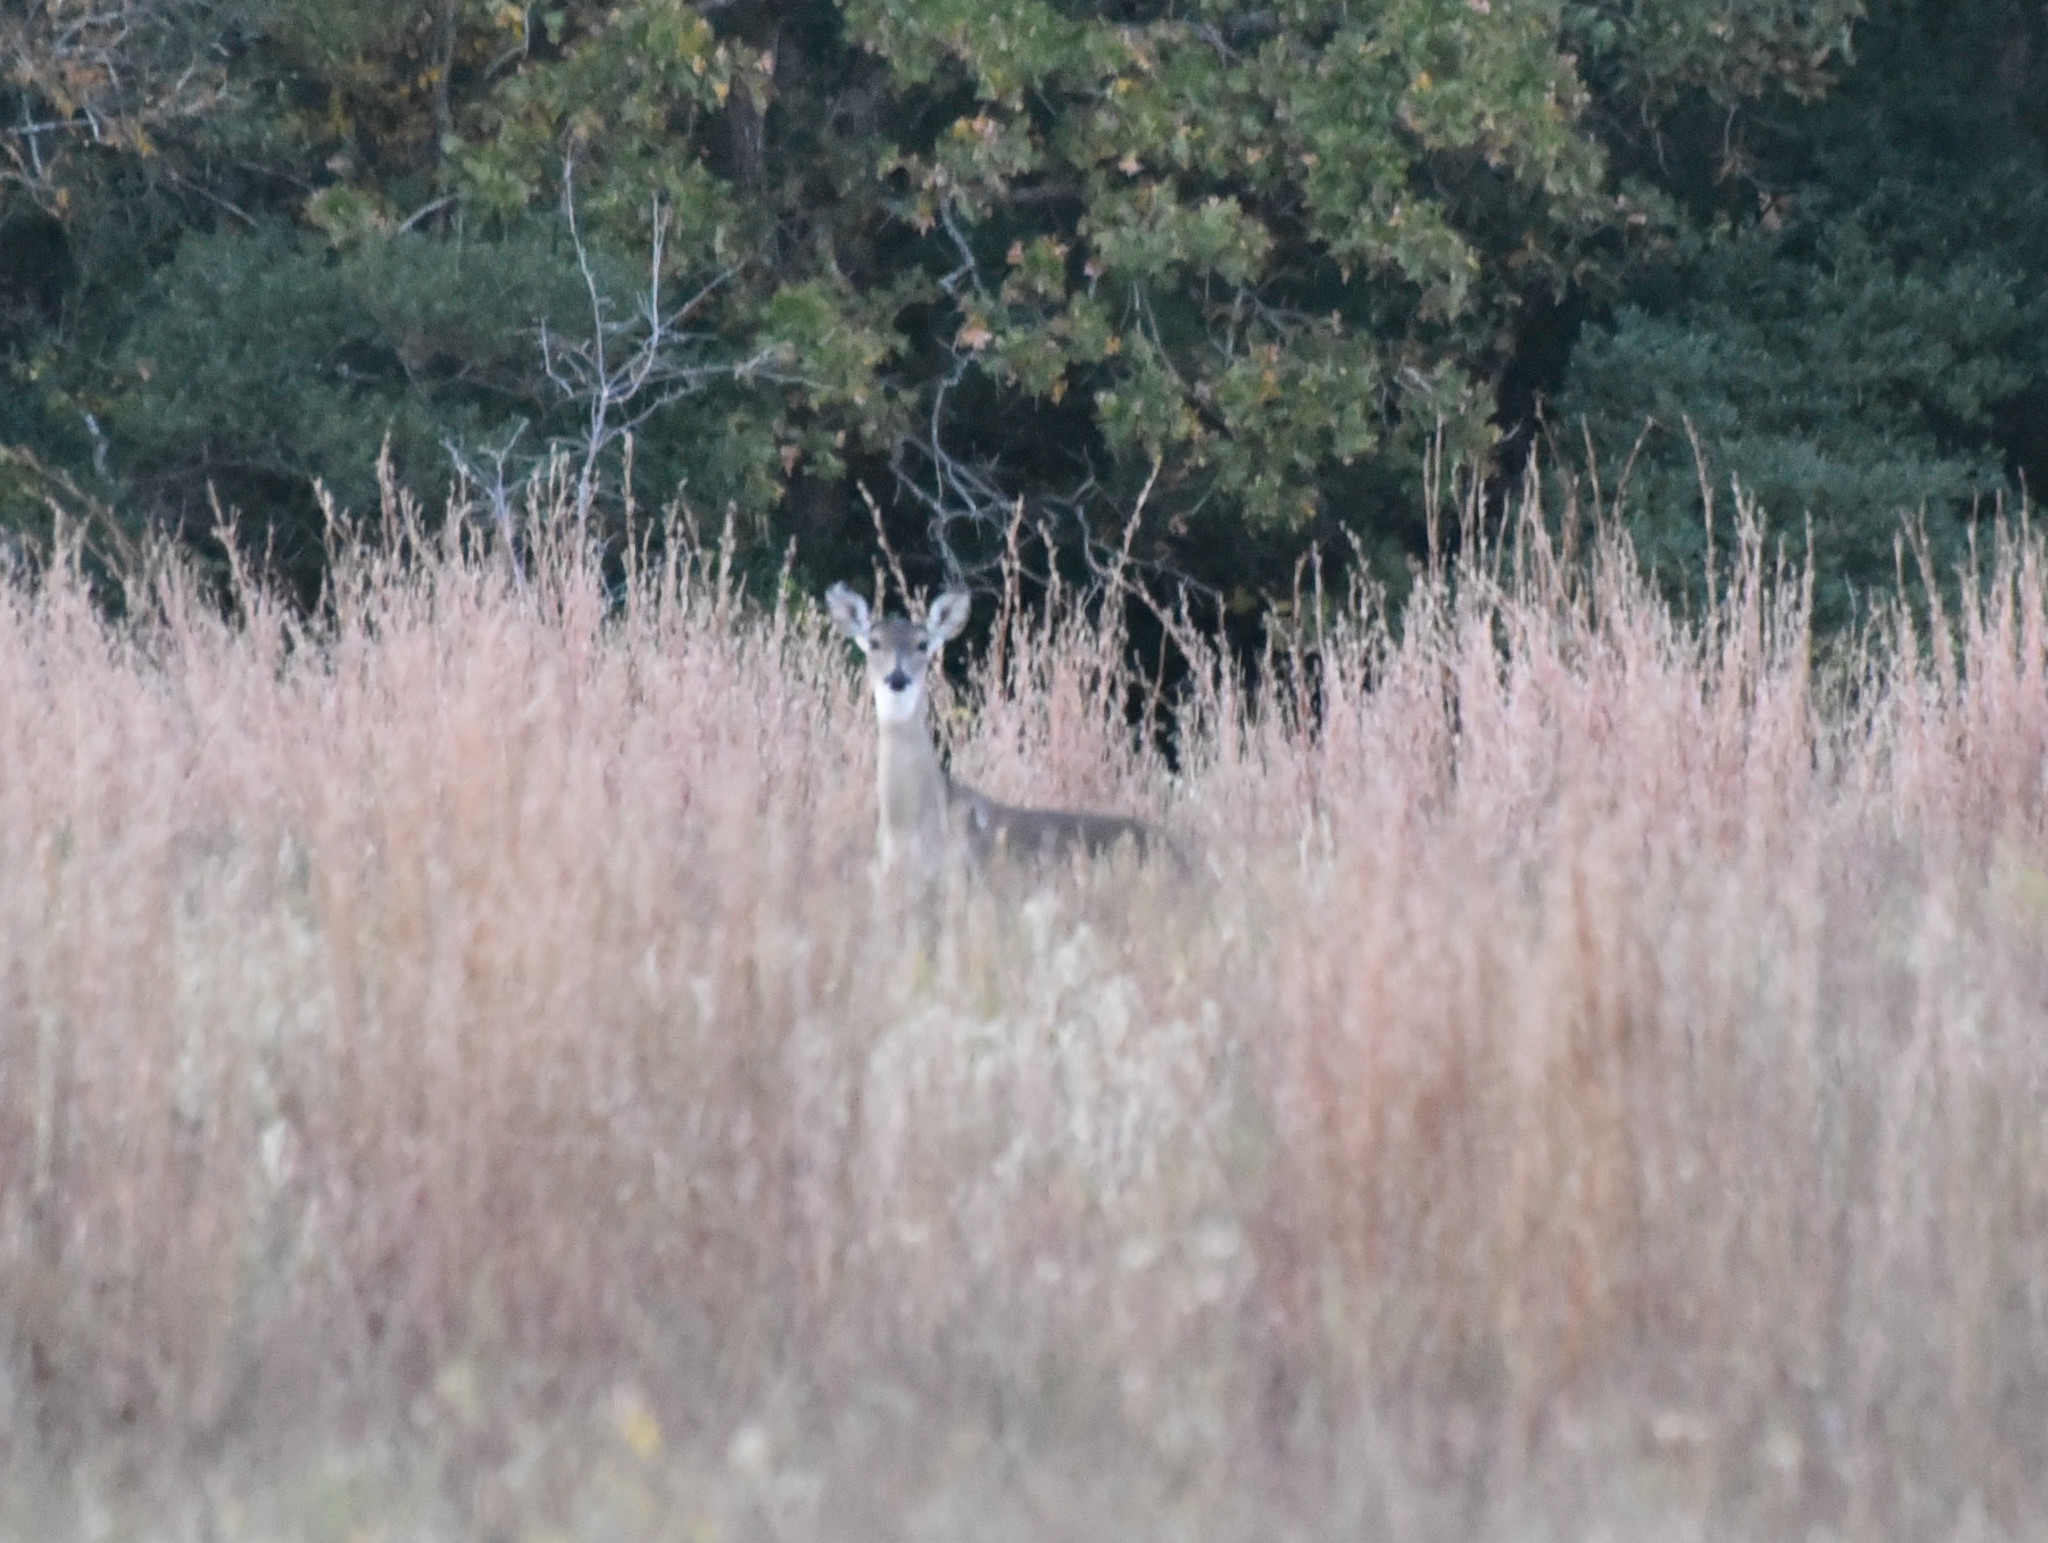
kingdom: Animalia
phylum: Chordata
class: Mammalia
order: Artiodactyla
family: Cervidae
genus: Odocoileus
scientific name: Odocoileus virginianus
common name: White-tailed deer
